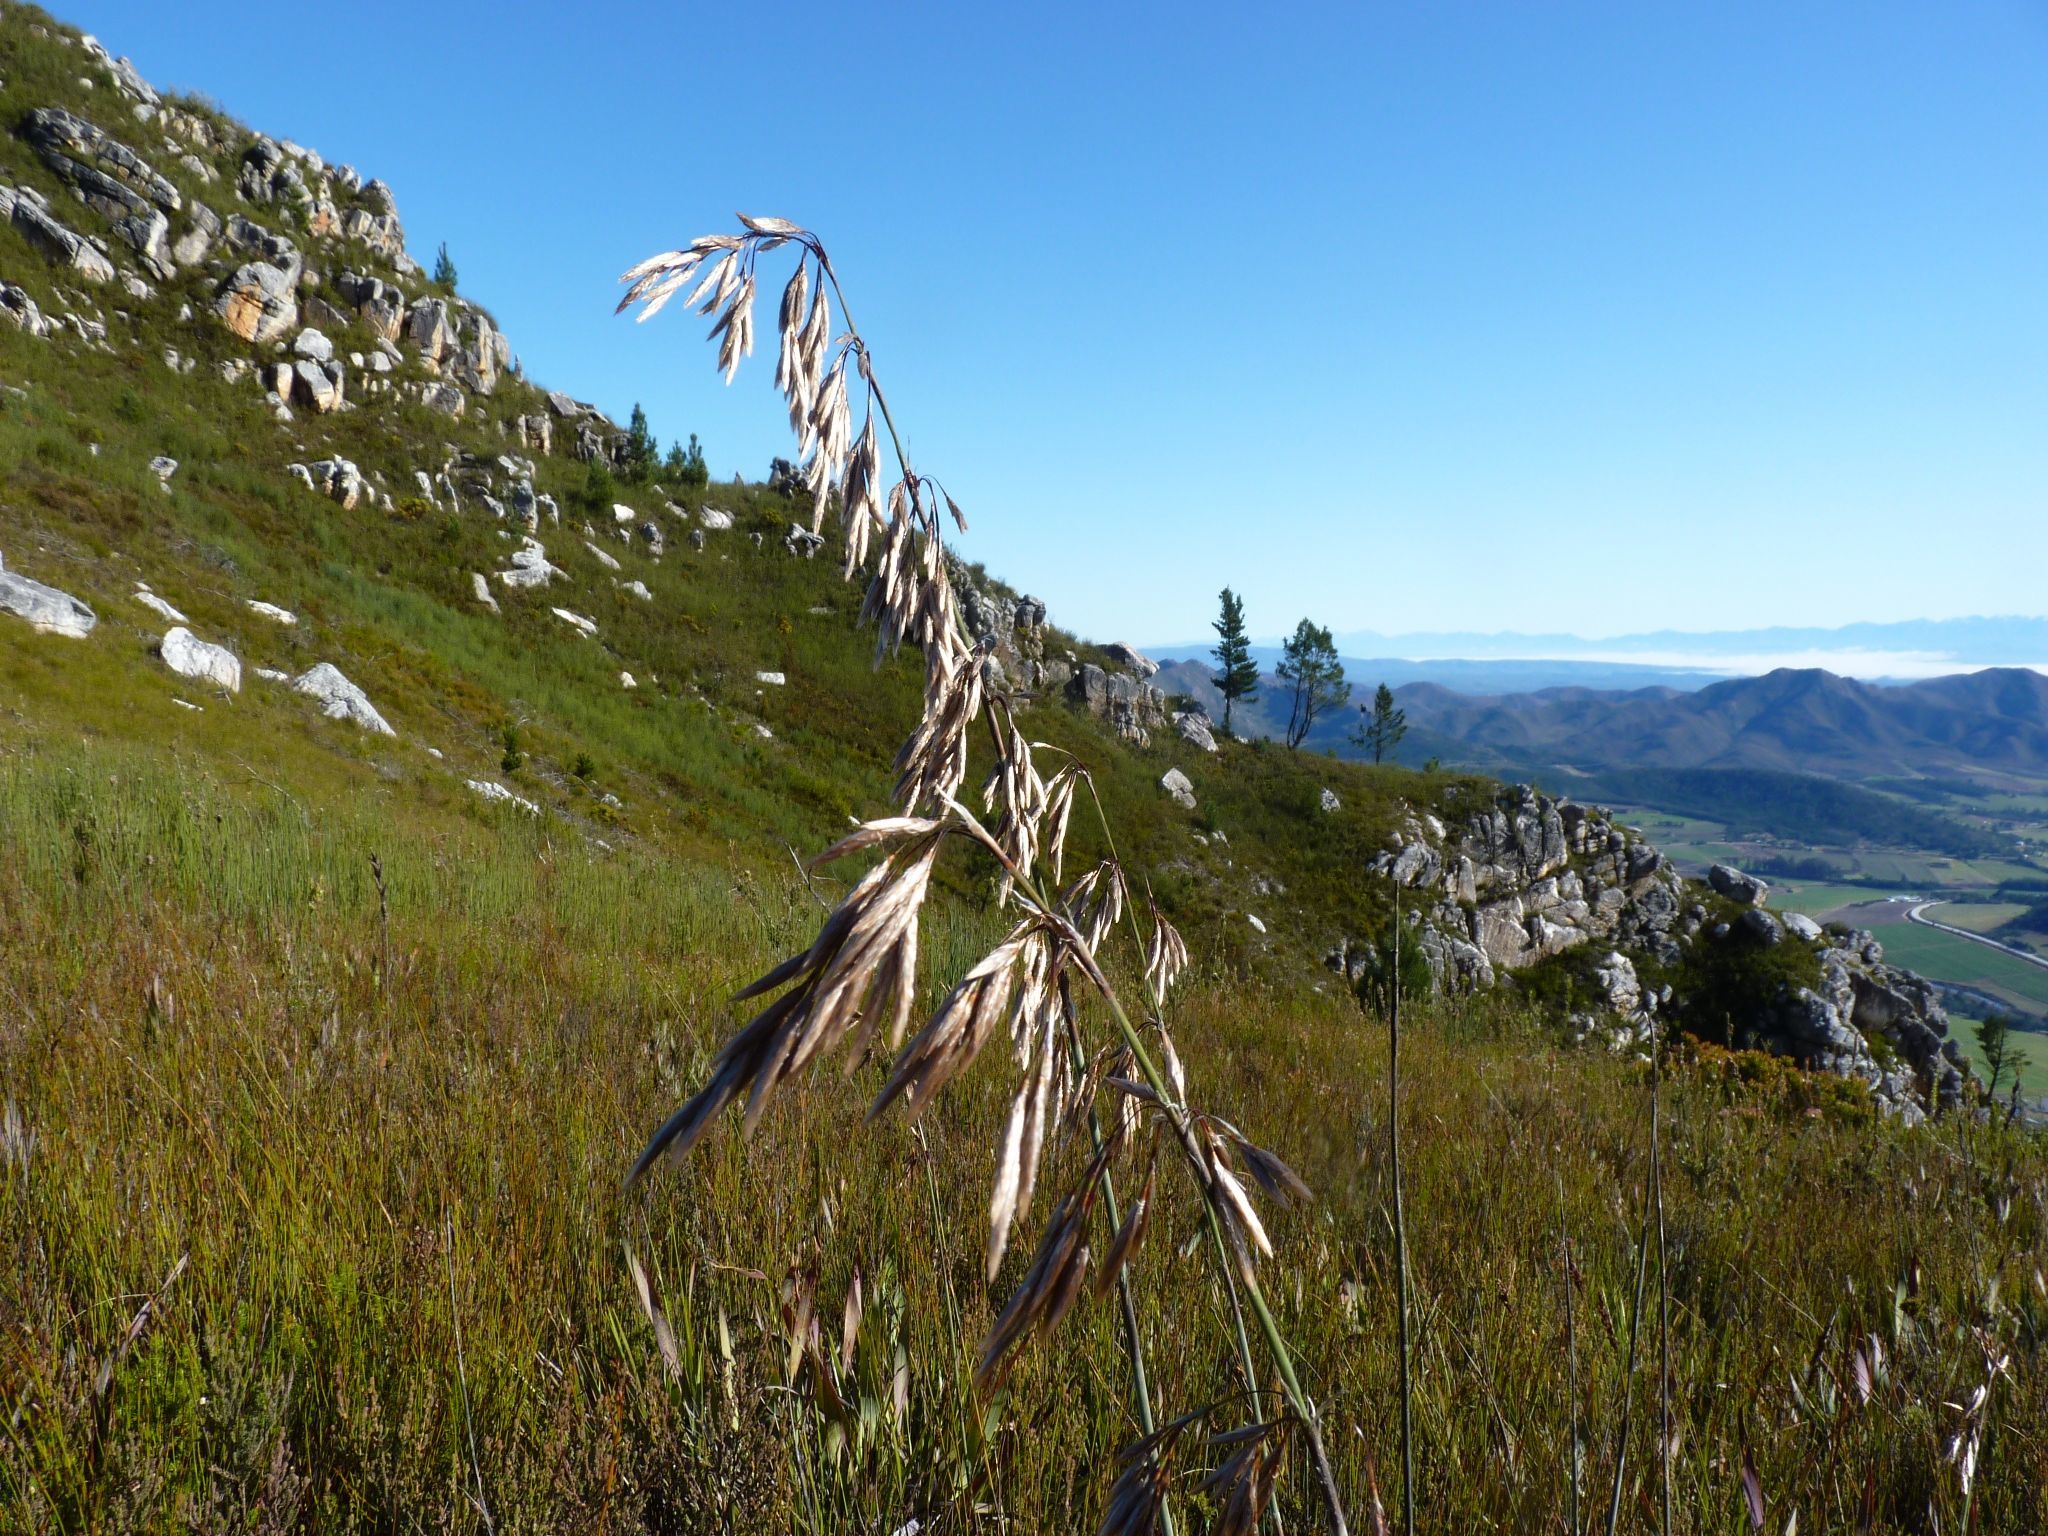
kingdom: Plantae
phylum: Tracheophyta
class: Liliopsida
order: Poales
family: Restionaceae
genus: Thamnochortus
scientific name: Thamnochortus cinereus
